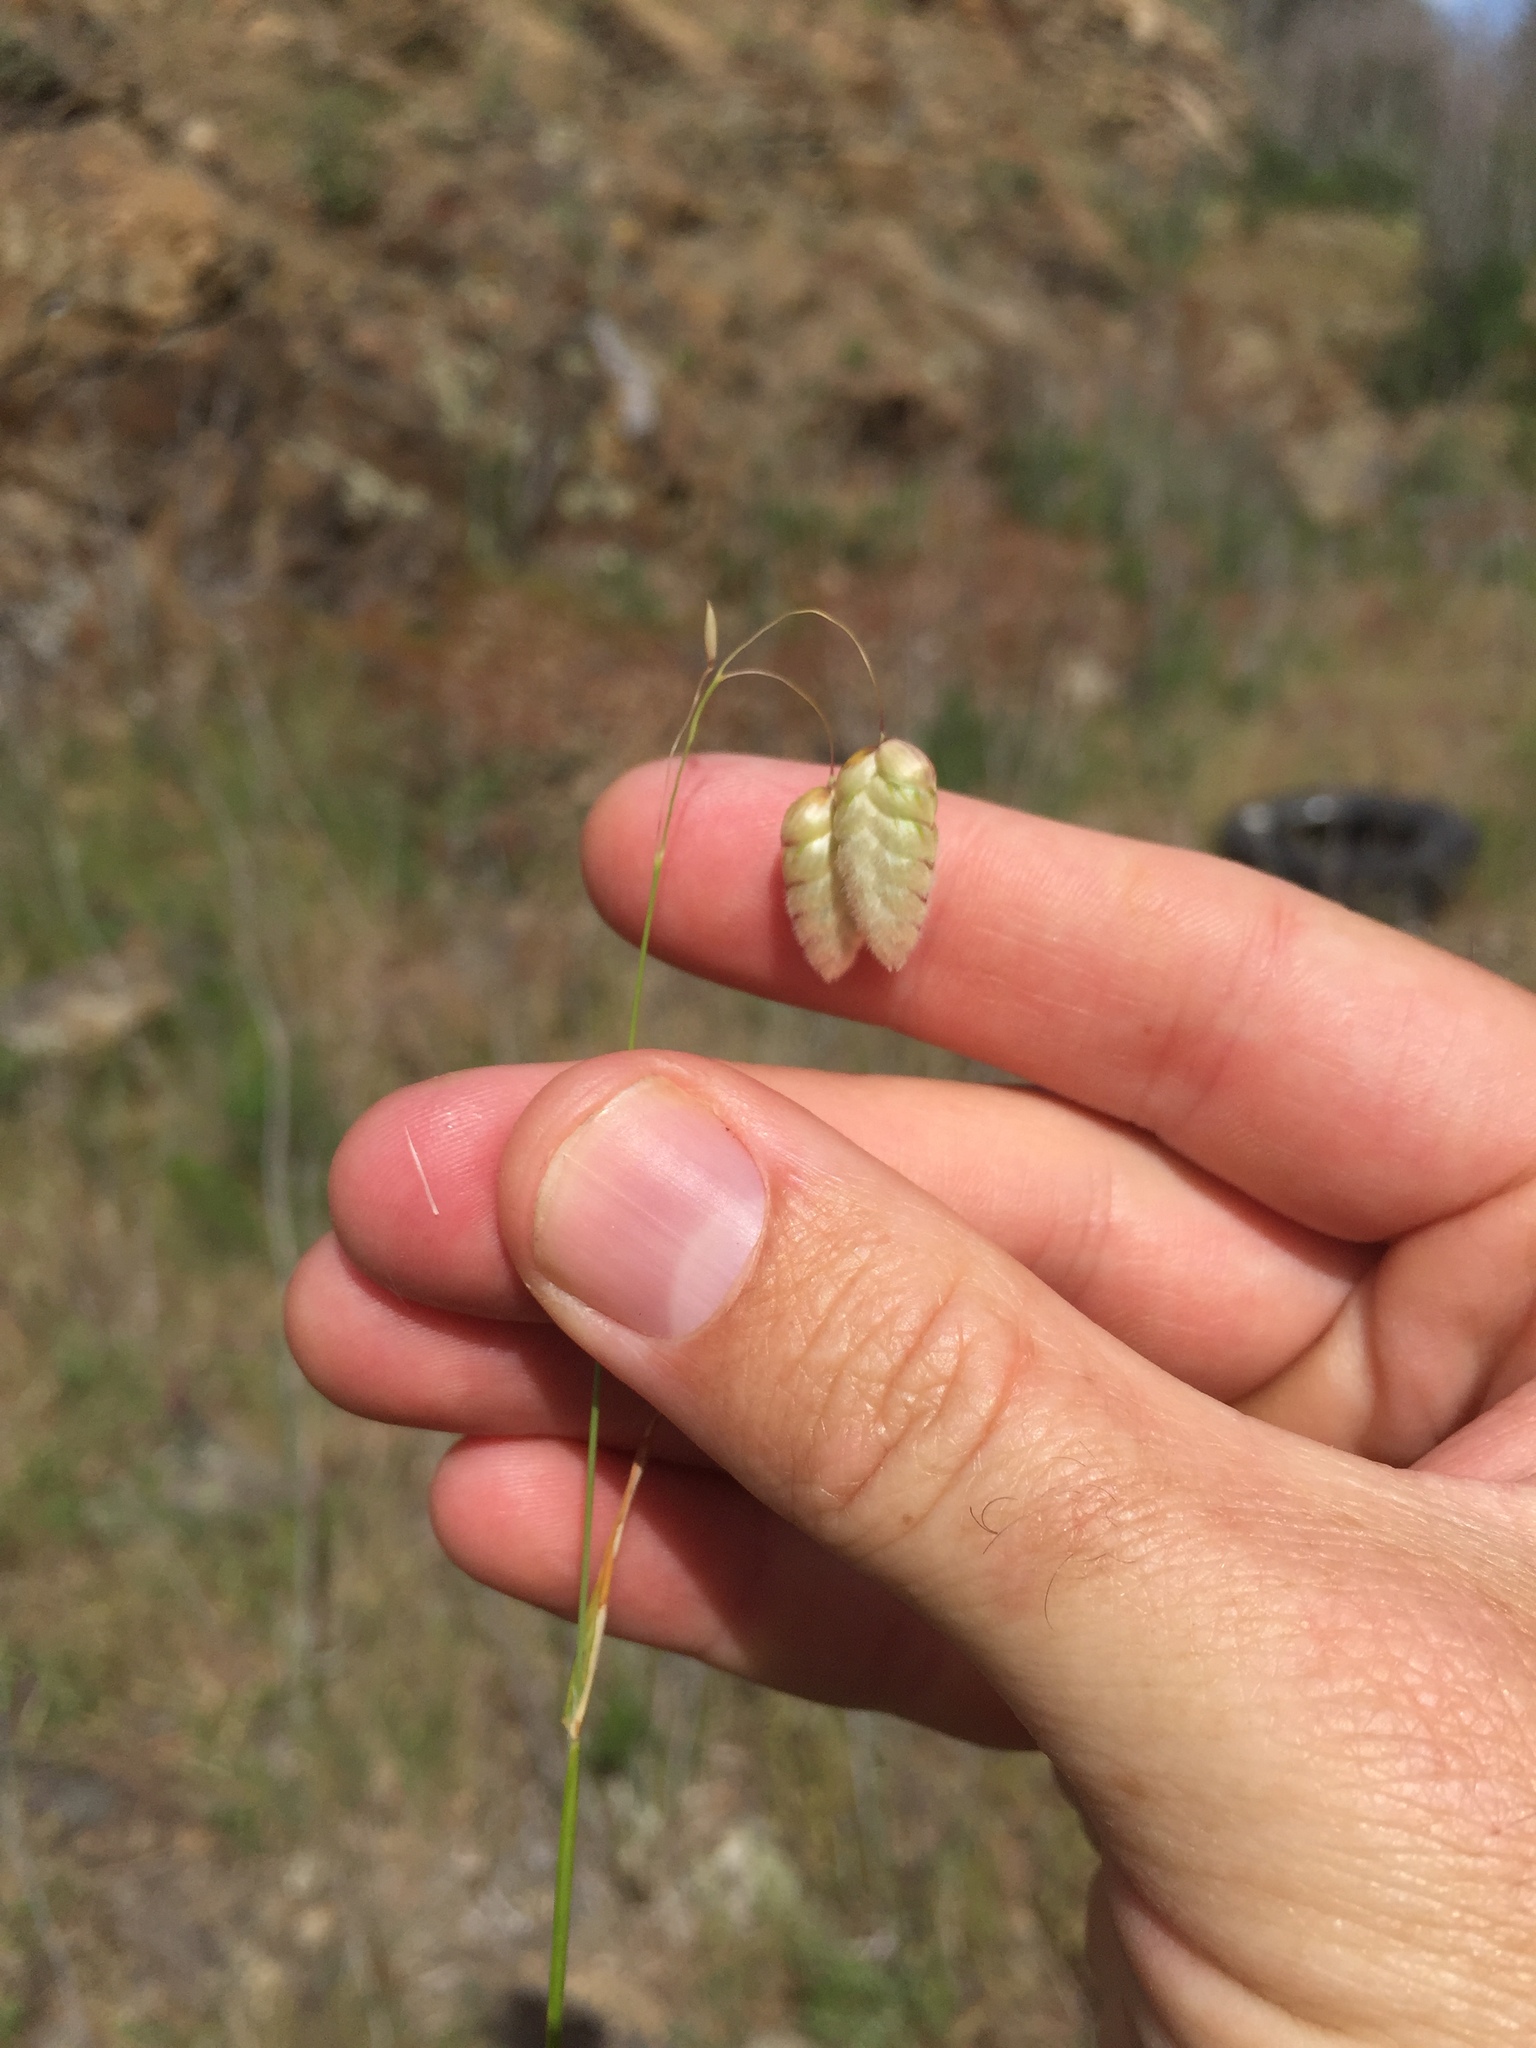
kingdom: Plantae
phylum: Tracheophyta
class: Liliopsida
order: Poales
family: Poaceae
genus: Briza
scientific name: Briza maxima
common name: Big quakinggrass
